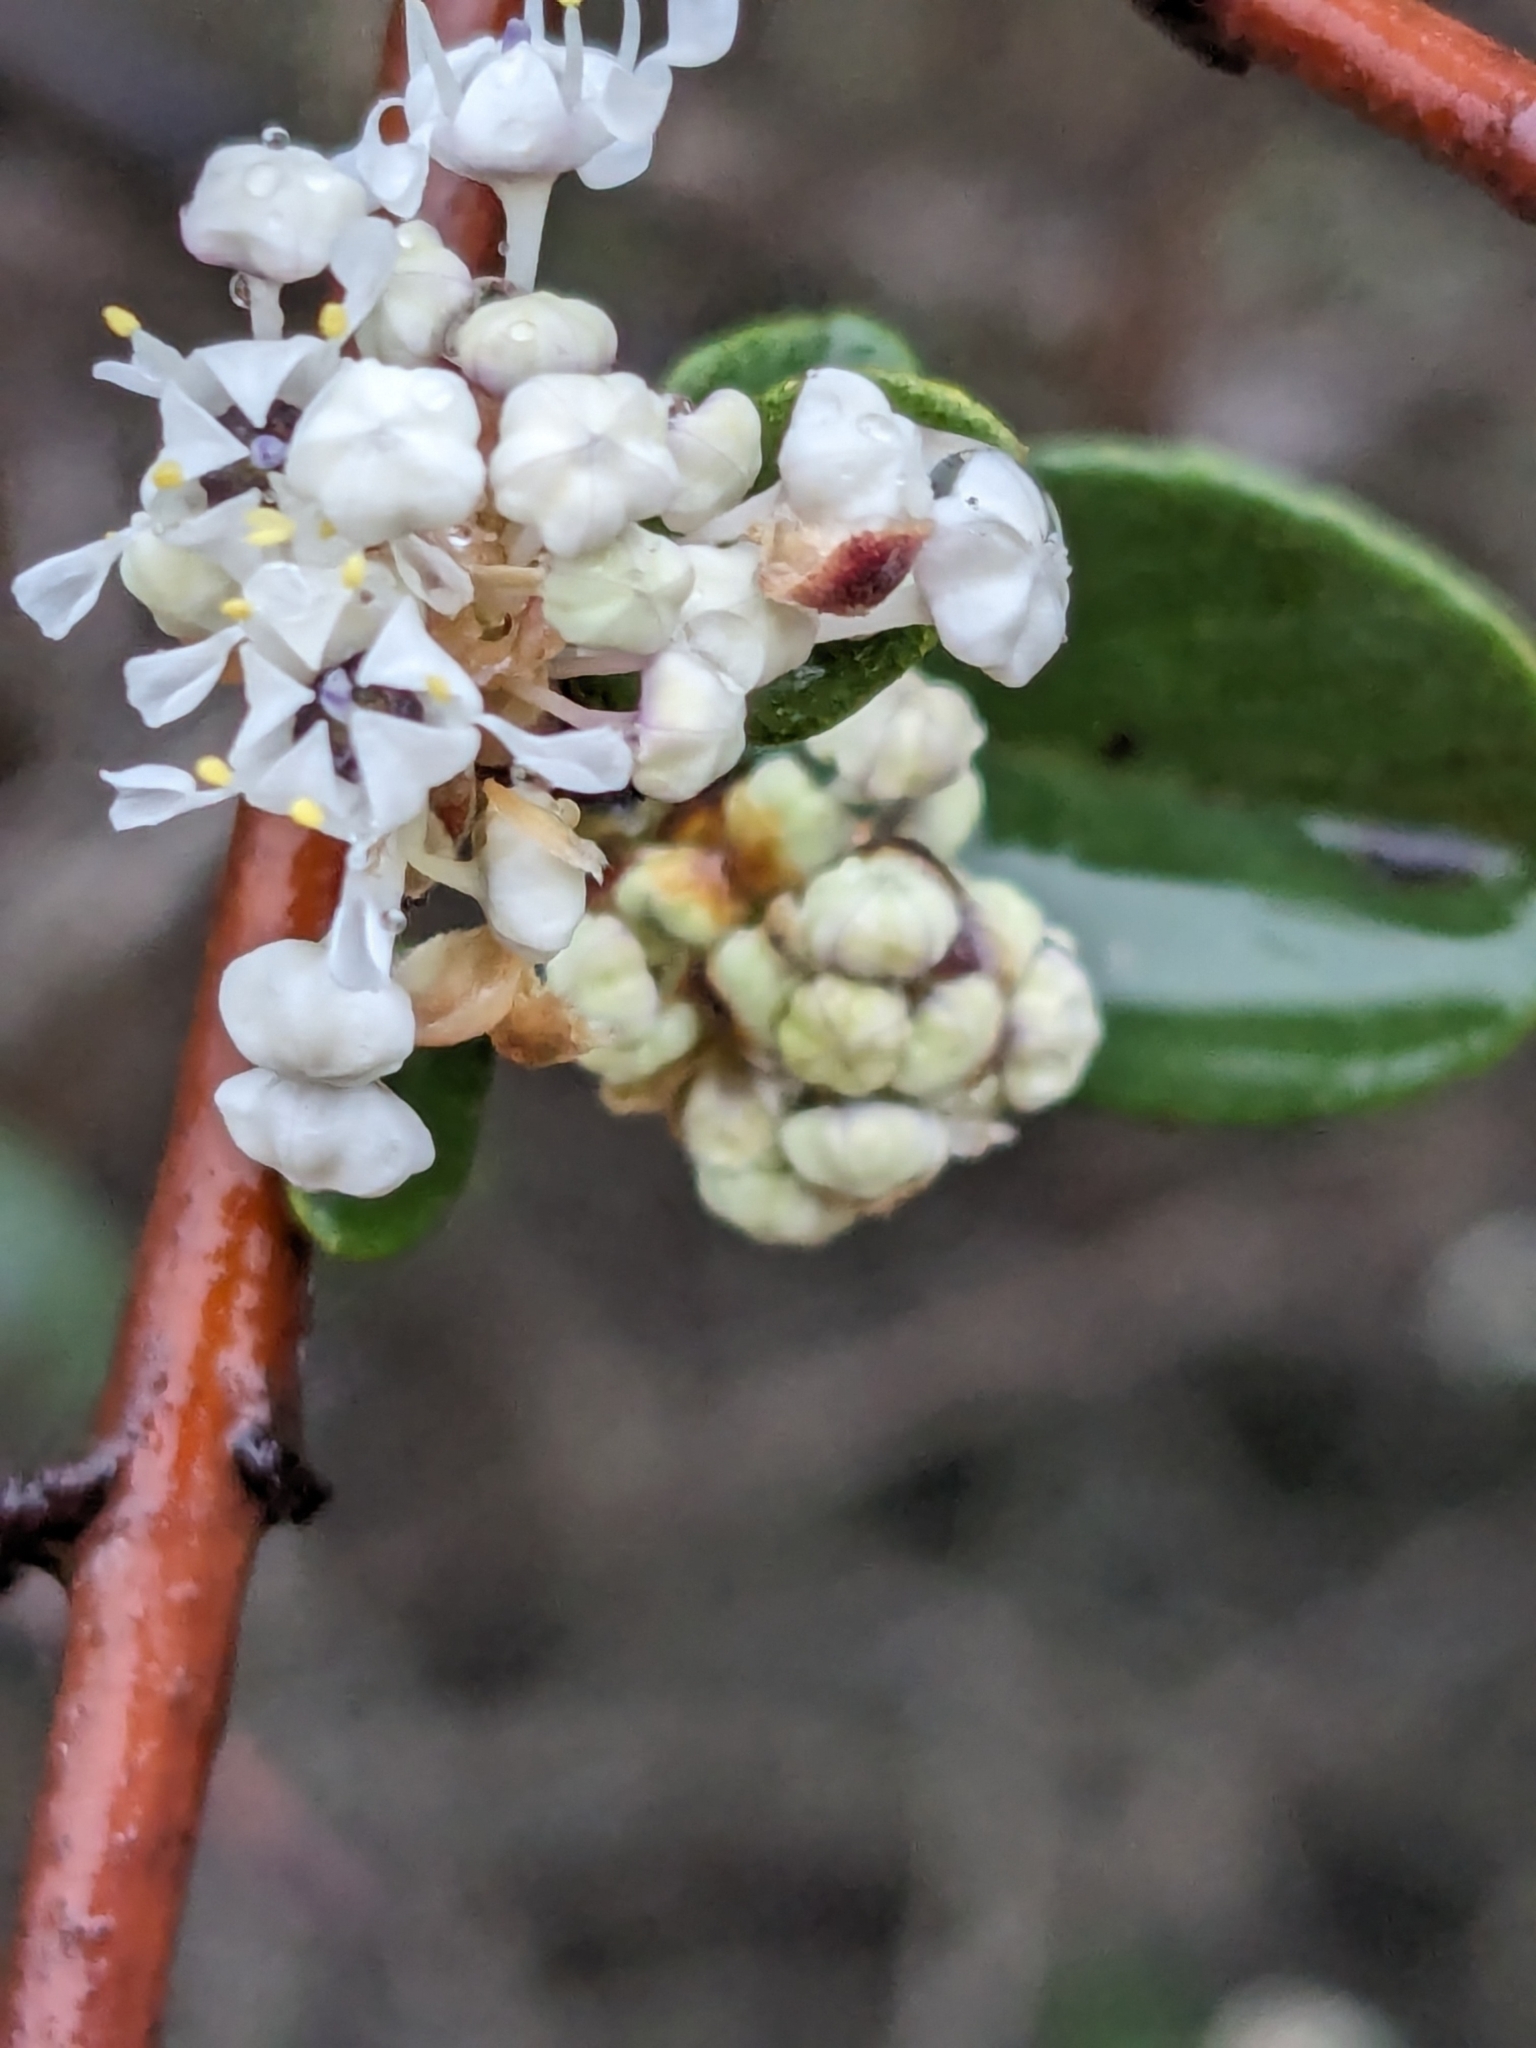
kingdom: Plantae
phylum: Tracheophyta
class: Magnoliopsida
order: Rosales
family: Rhamnaceae
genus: Ceanothus
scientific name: Ceanothus cuneatus
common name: Cuneate ceanothus
